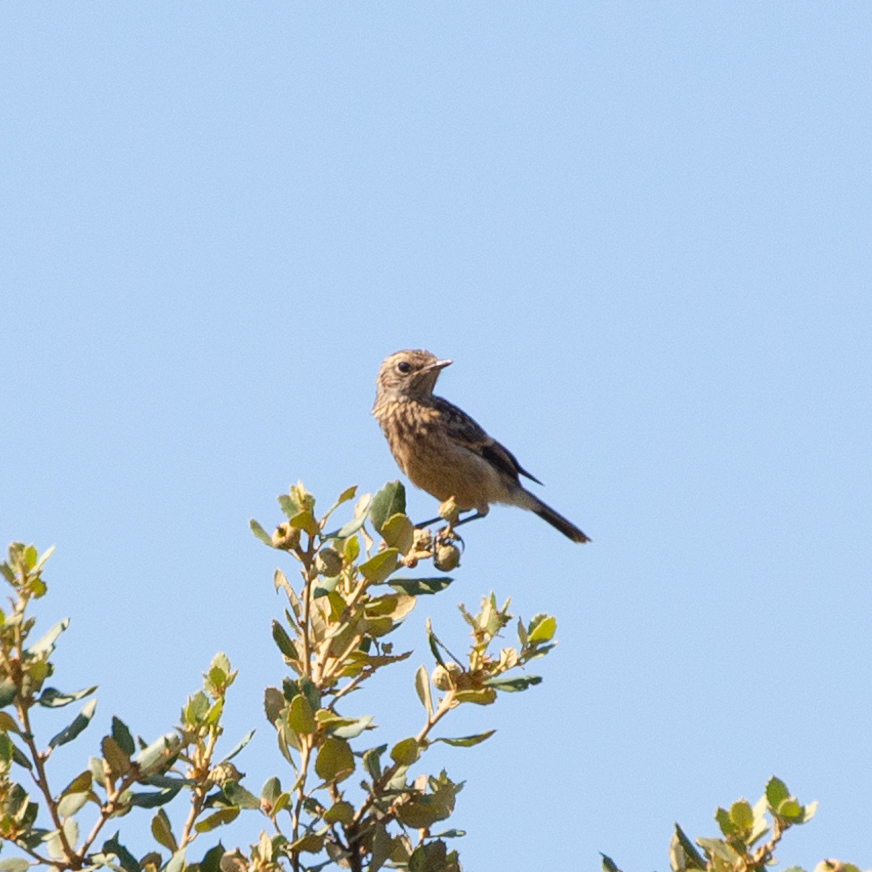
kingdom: Animalia
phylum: Chordata
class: Aves
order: Passeriformes
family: Muscicapidae
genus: Saxicola
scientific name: Saxicola rubicola
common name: European stonechat
